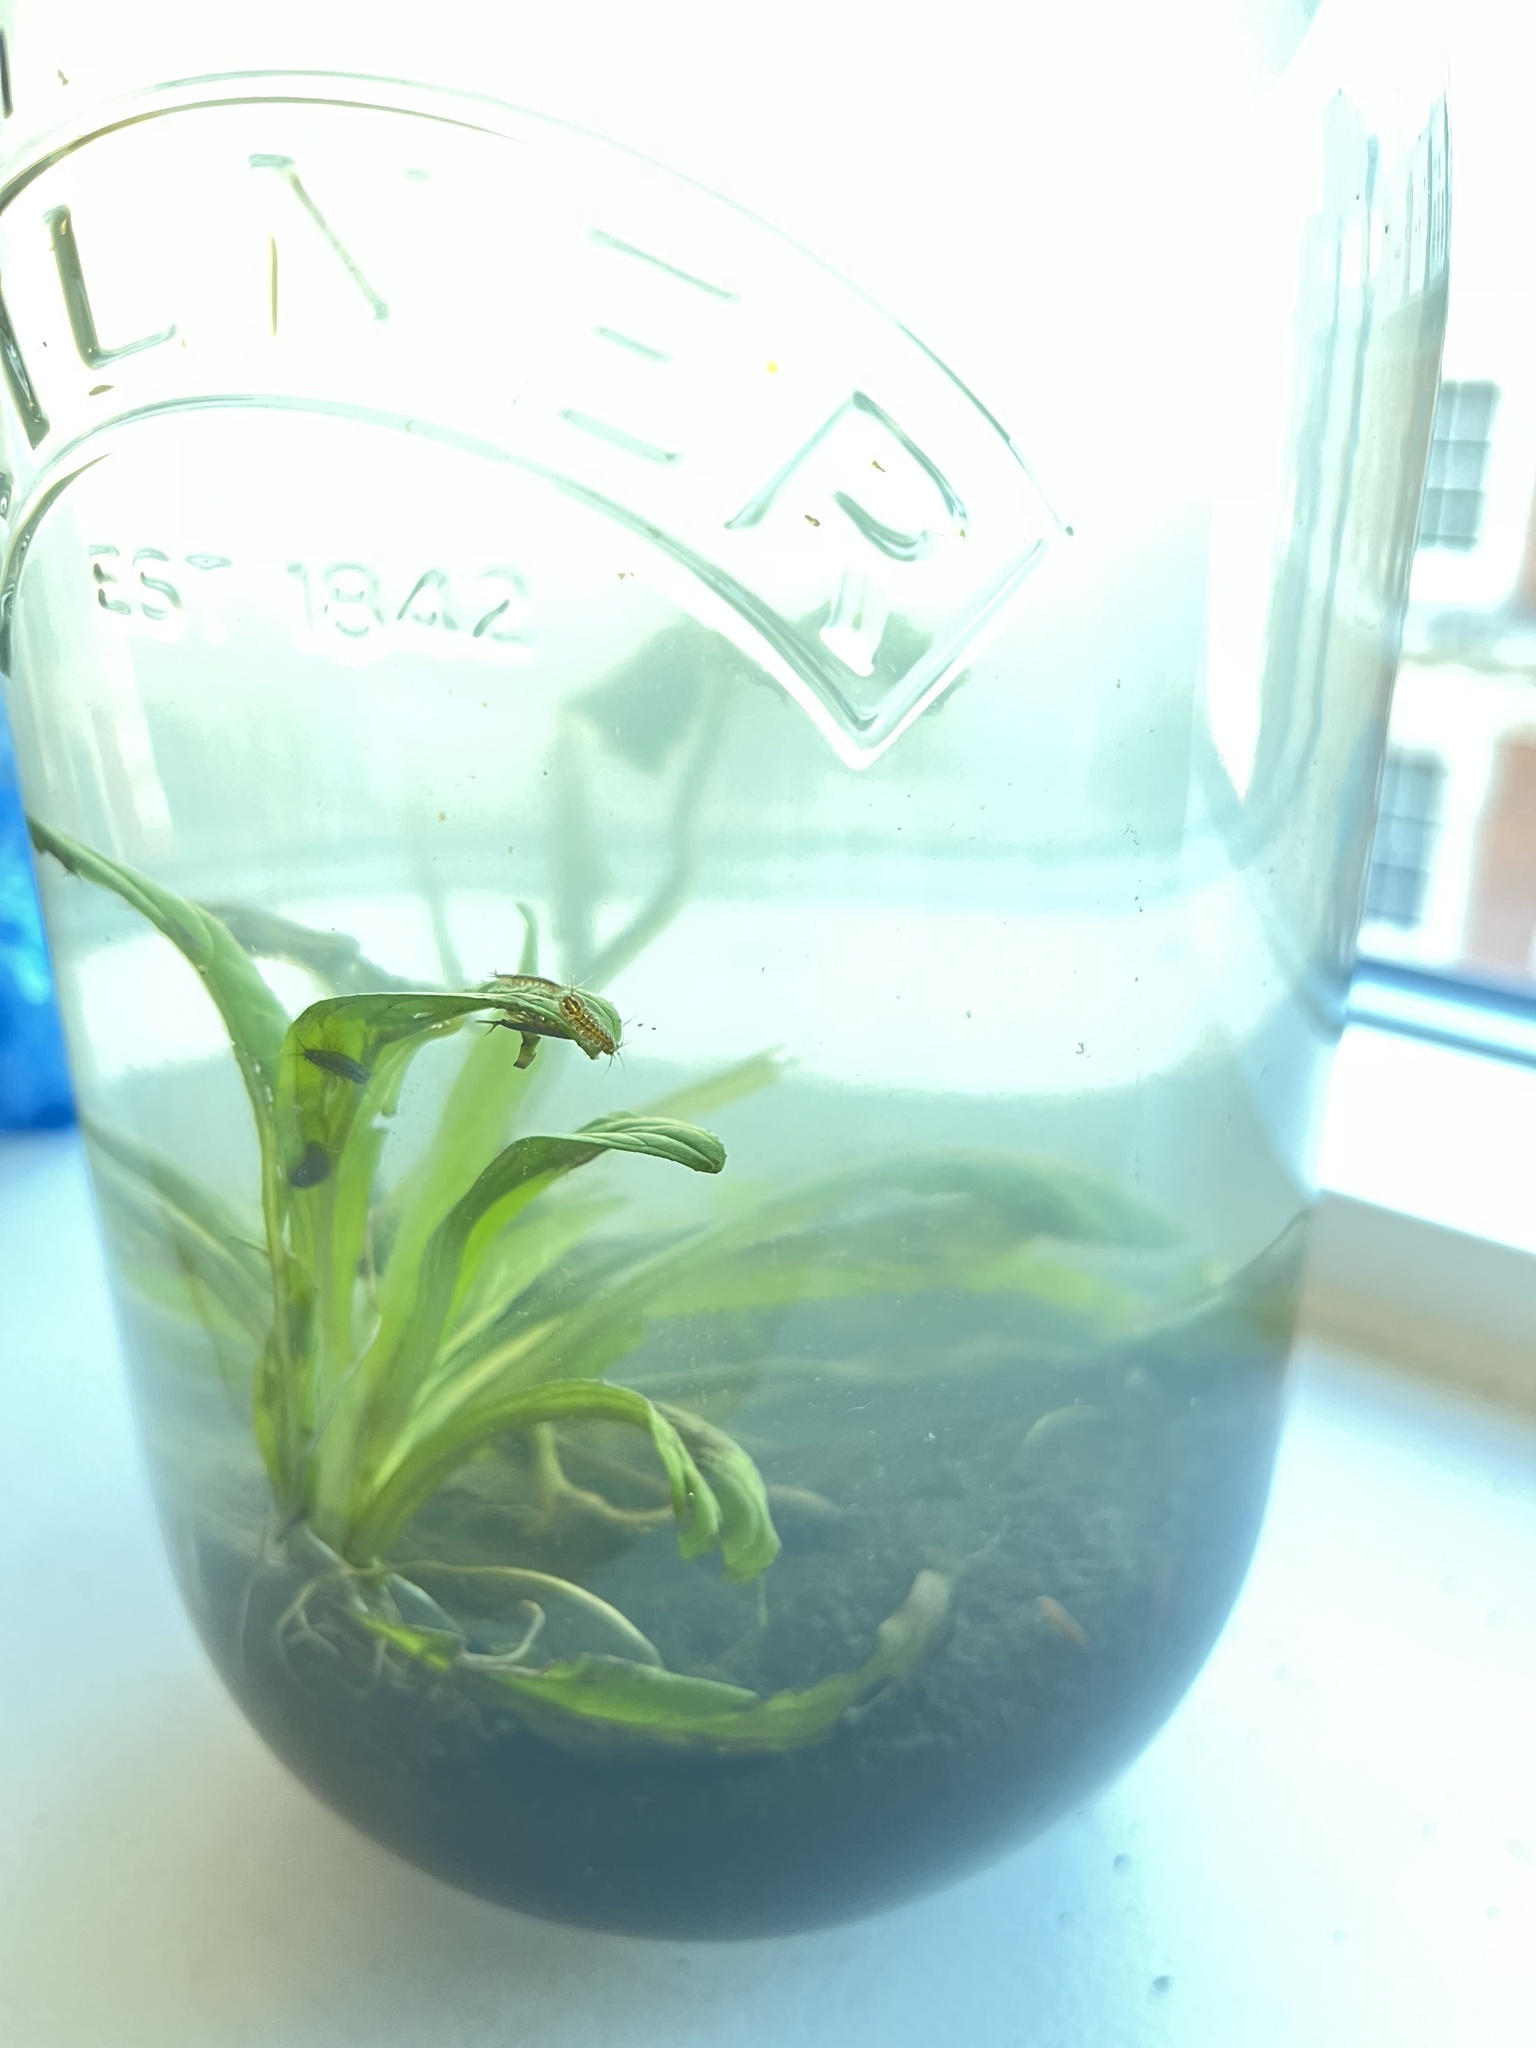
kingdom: Animalia
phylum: Arthropoda
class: Malacostraca
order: Isopoda
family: Asellidae
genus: Asellus
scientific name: Asellus aquaticus
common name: Water hog lice/slaters
